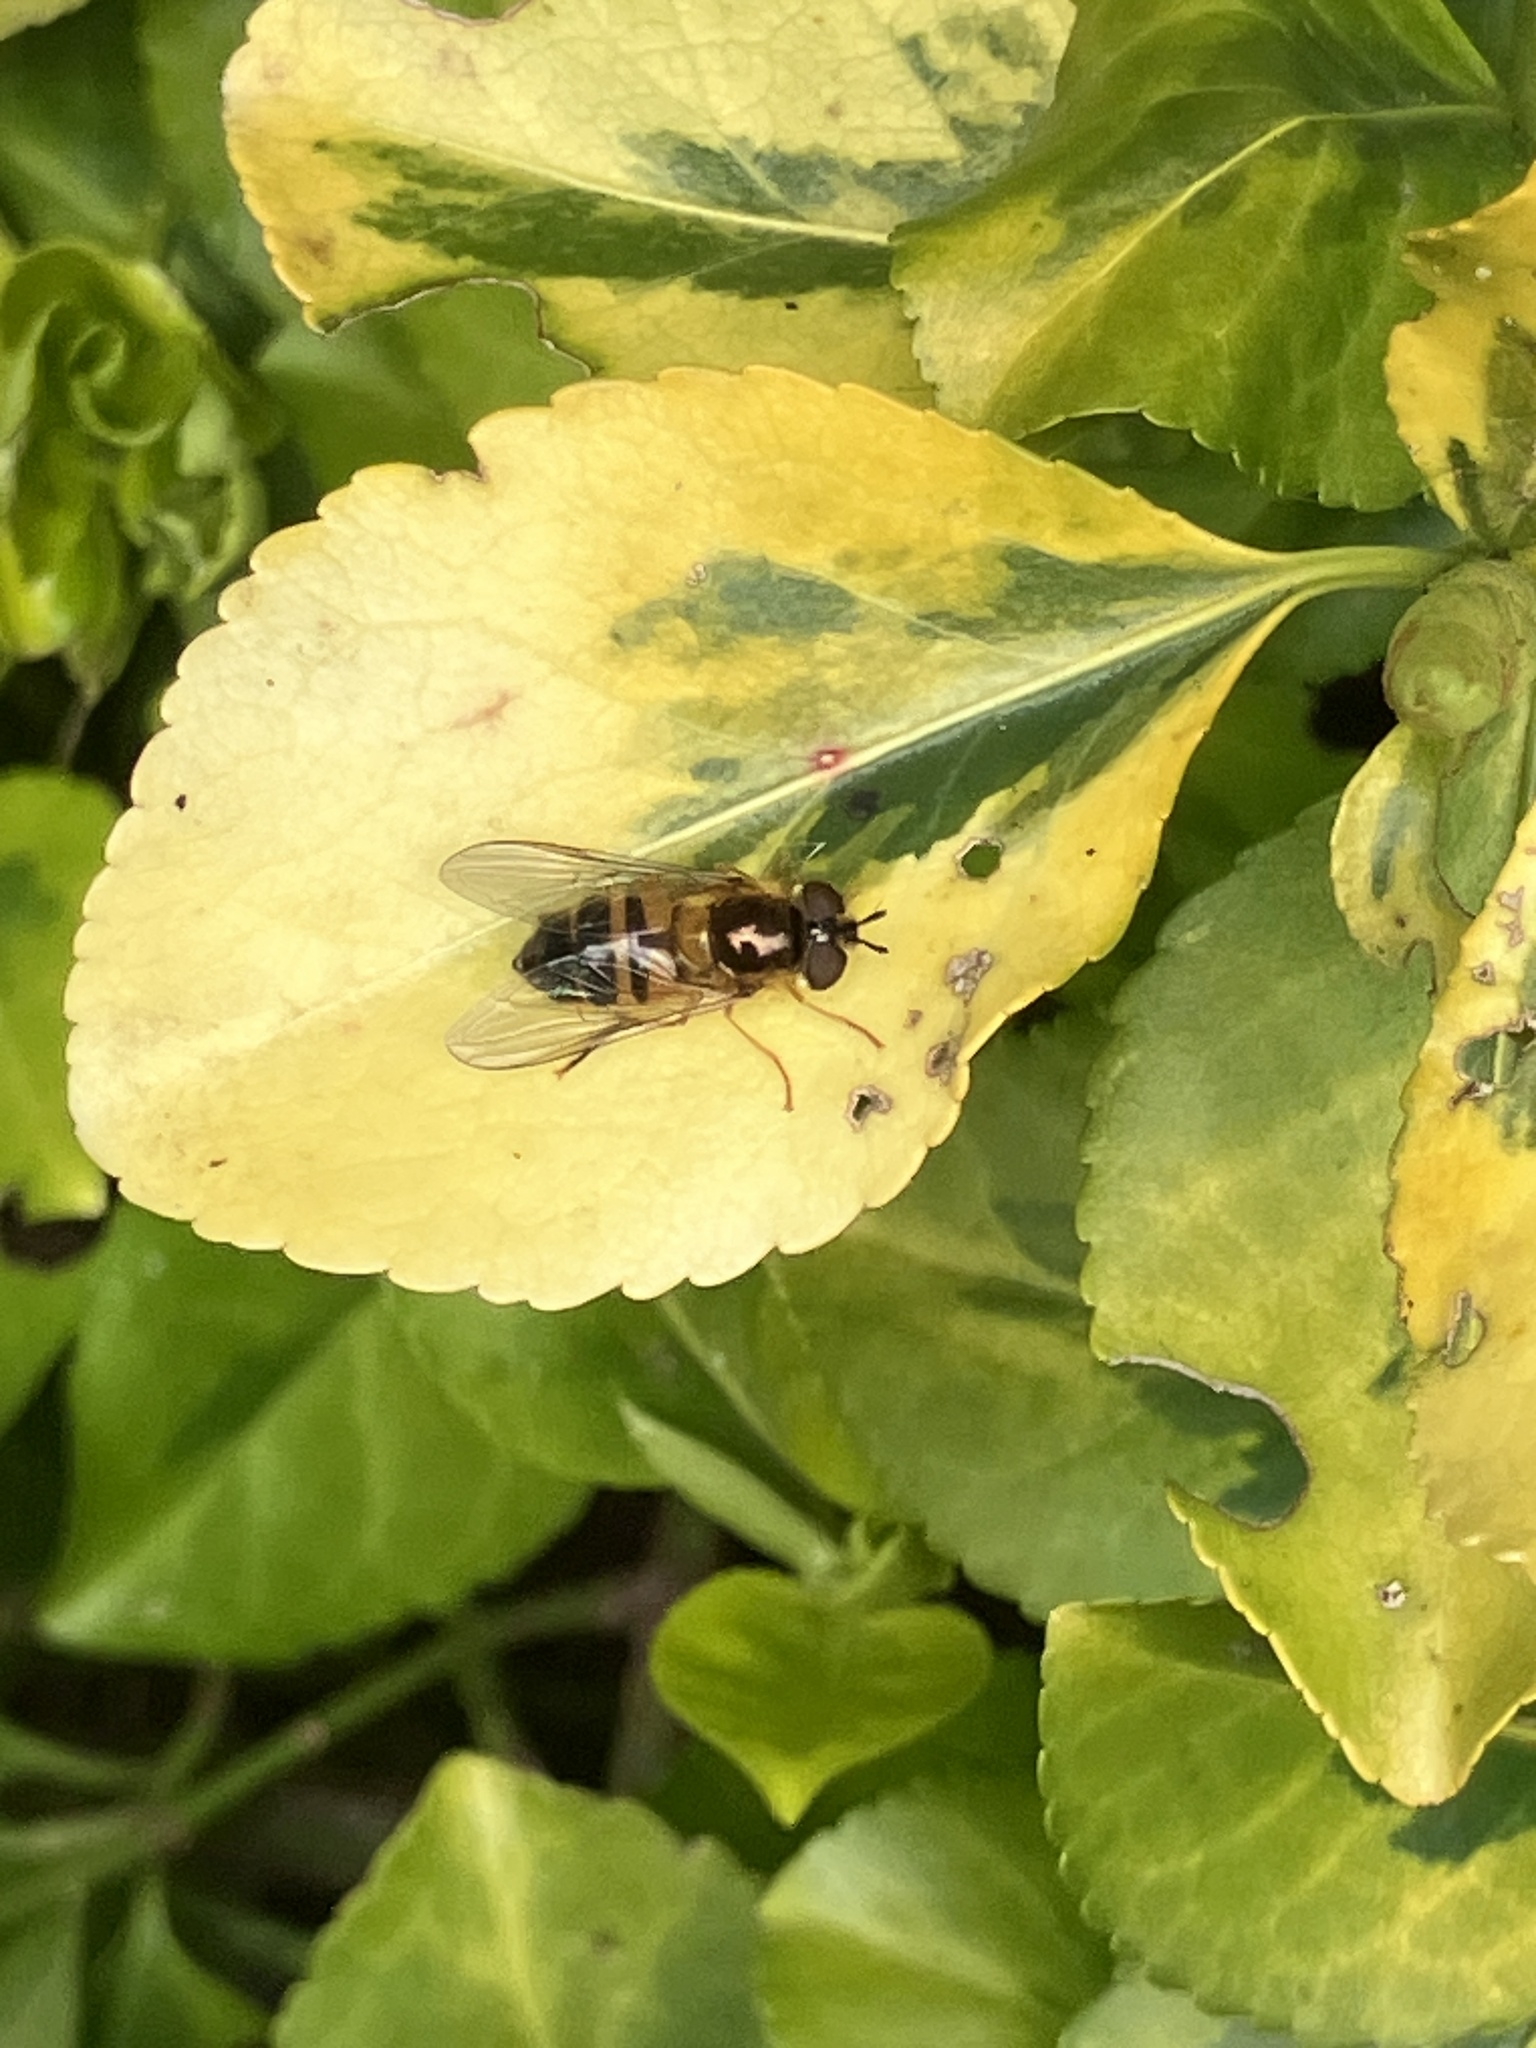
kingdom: Animalia
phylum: Arthropoda
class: Insecta
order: Diptera
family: Syrphidae
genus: Epistrophe
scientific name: Epistrophe eligans
